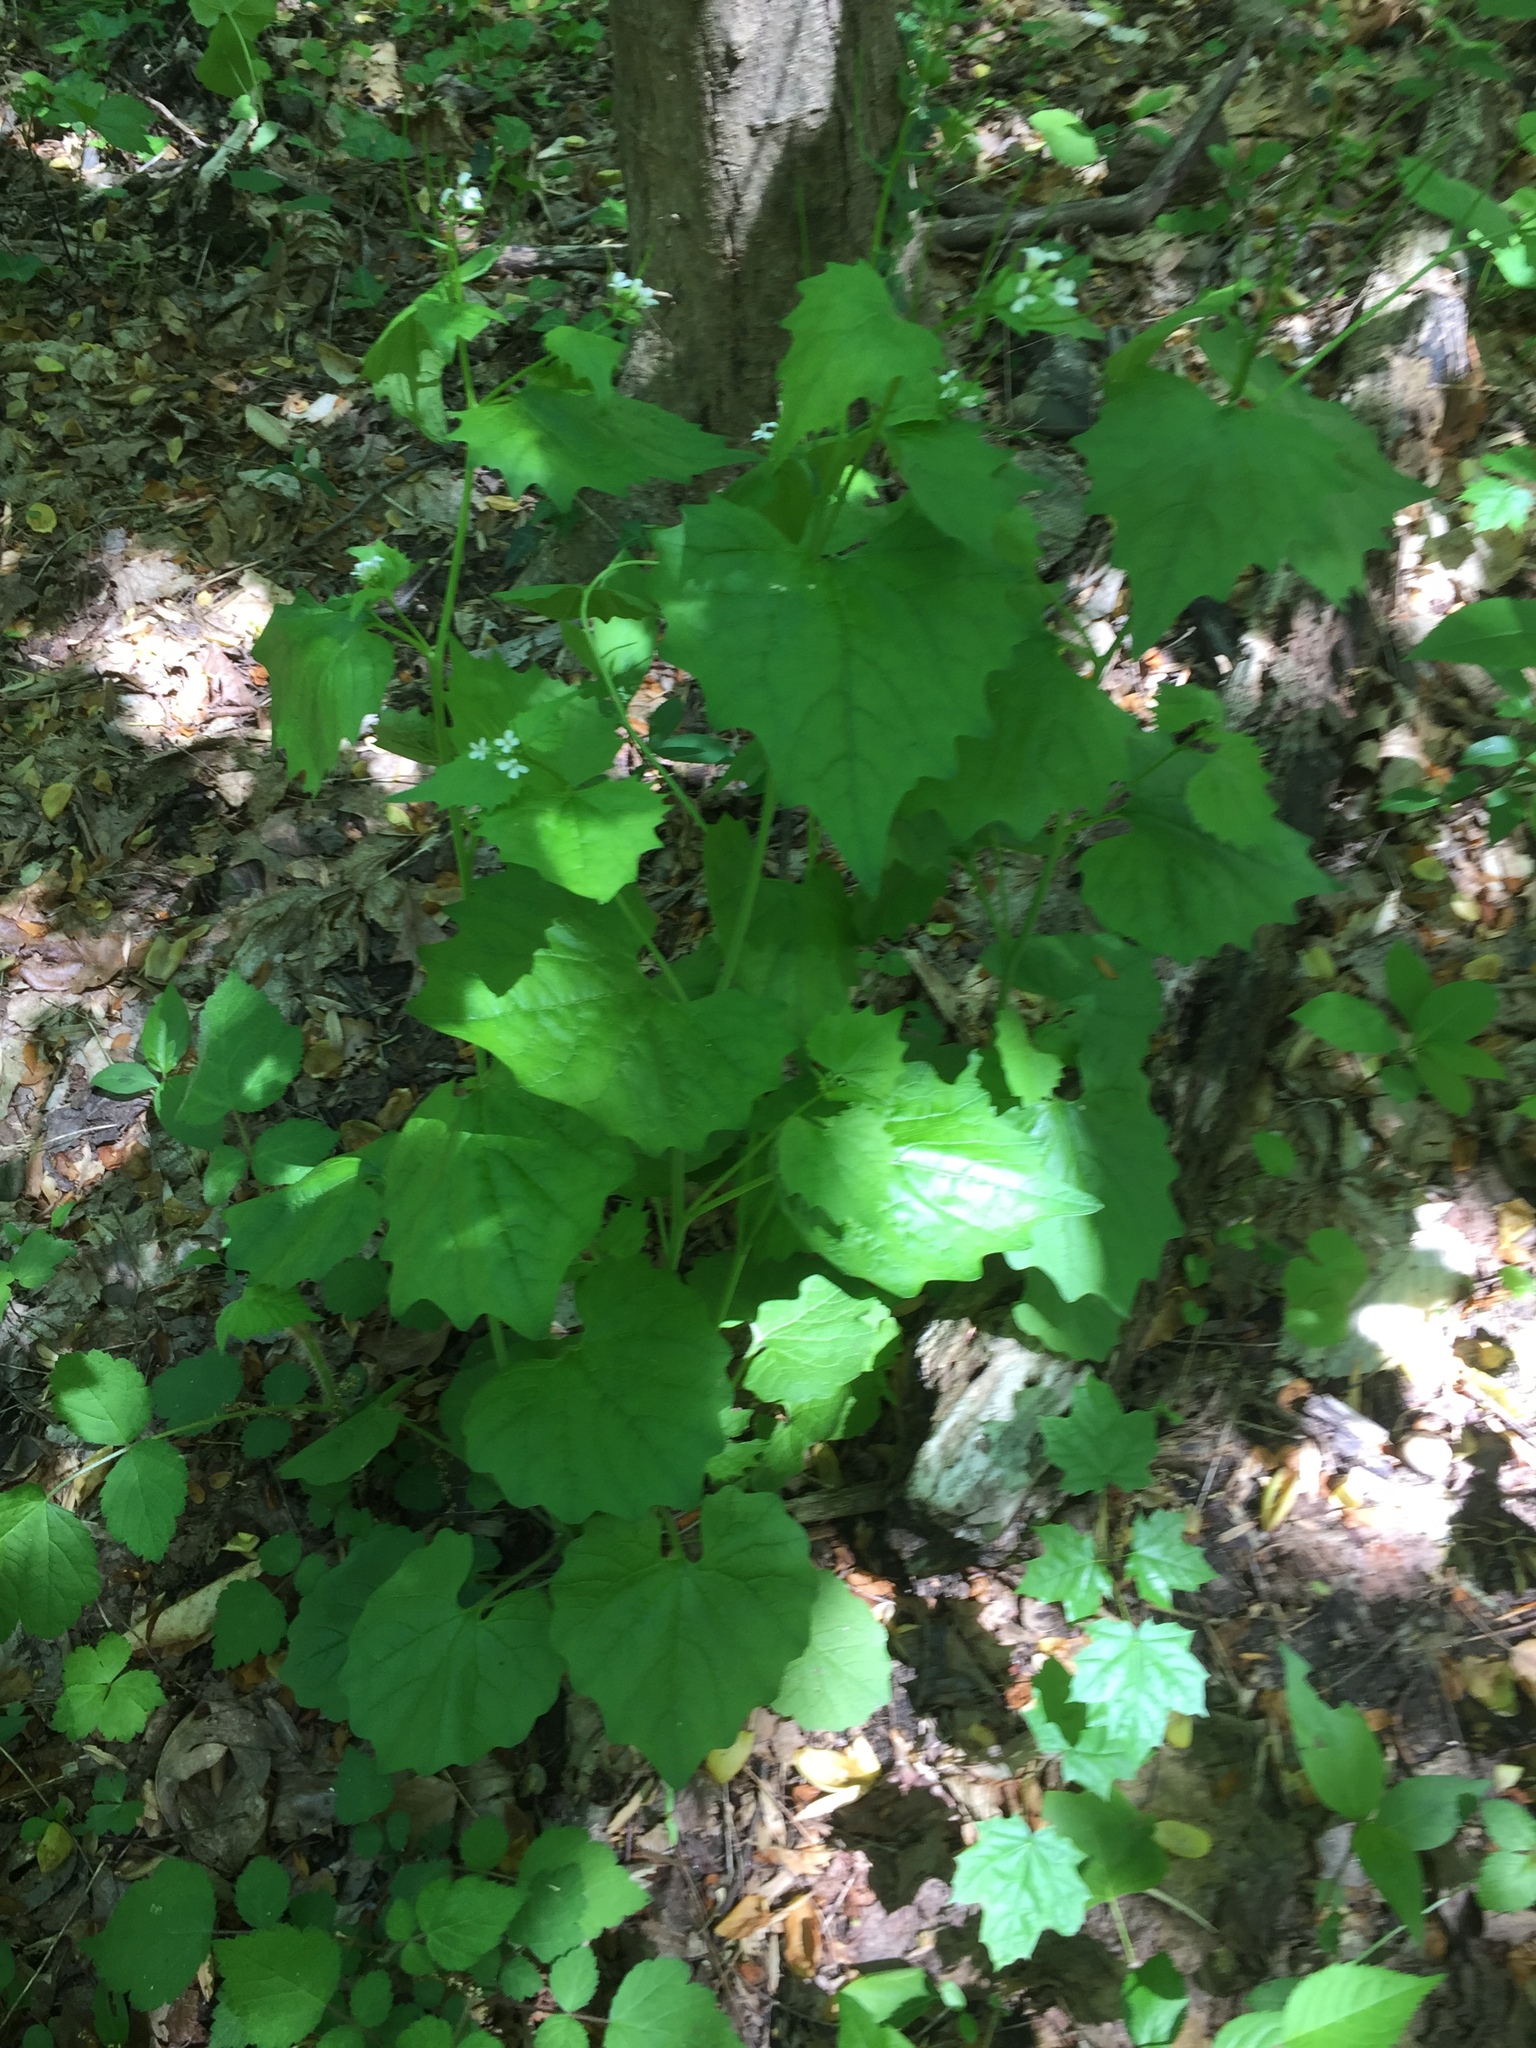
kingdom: Plantae
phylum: Tracheophyta
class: Magnoliopsida
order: Brassicales
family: Brassicaceae
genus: Alliaria
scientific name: Alliaria petiolata
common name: Garlic mustard
